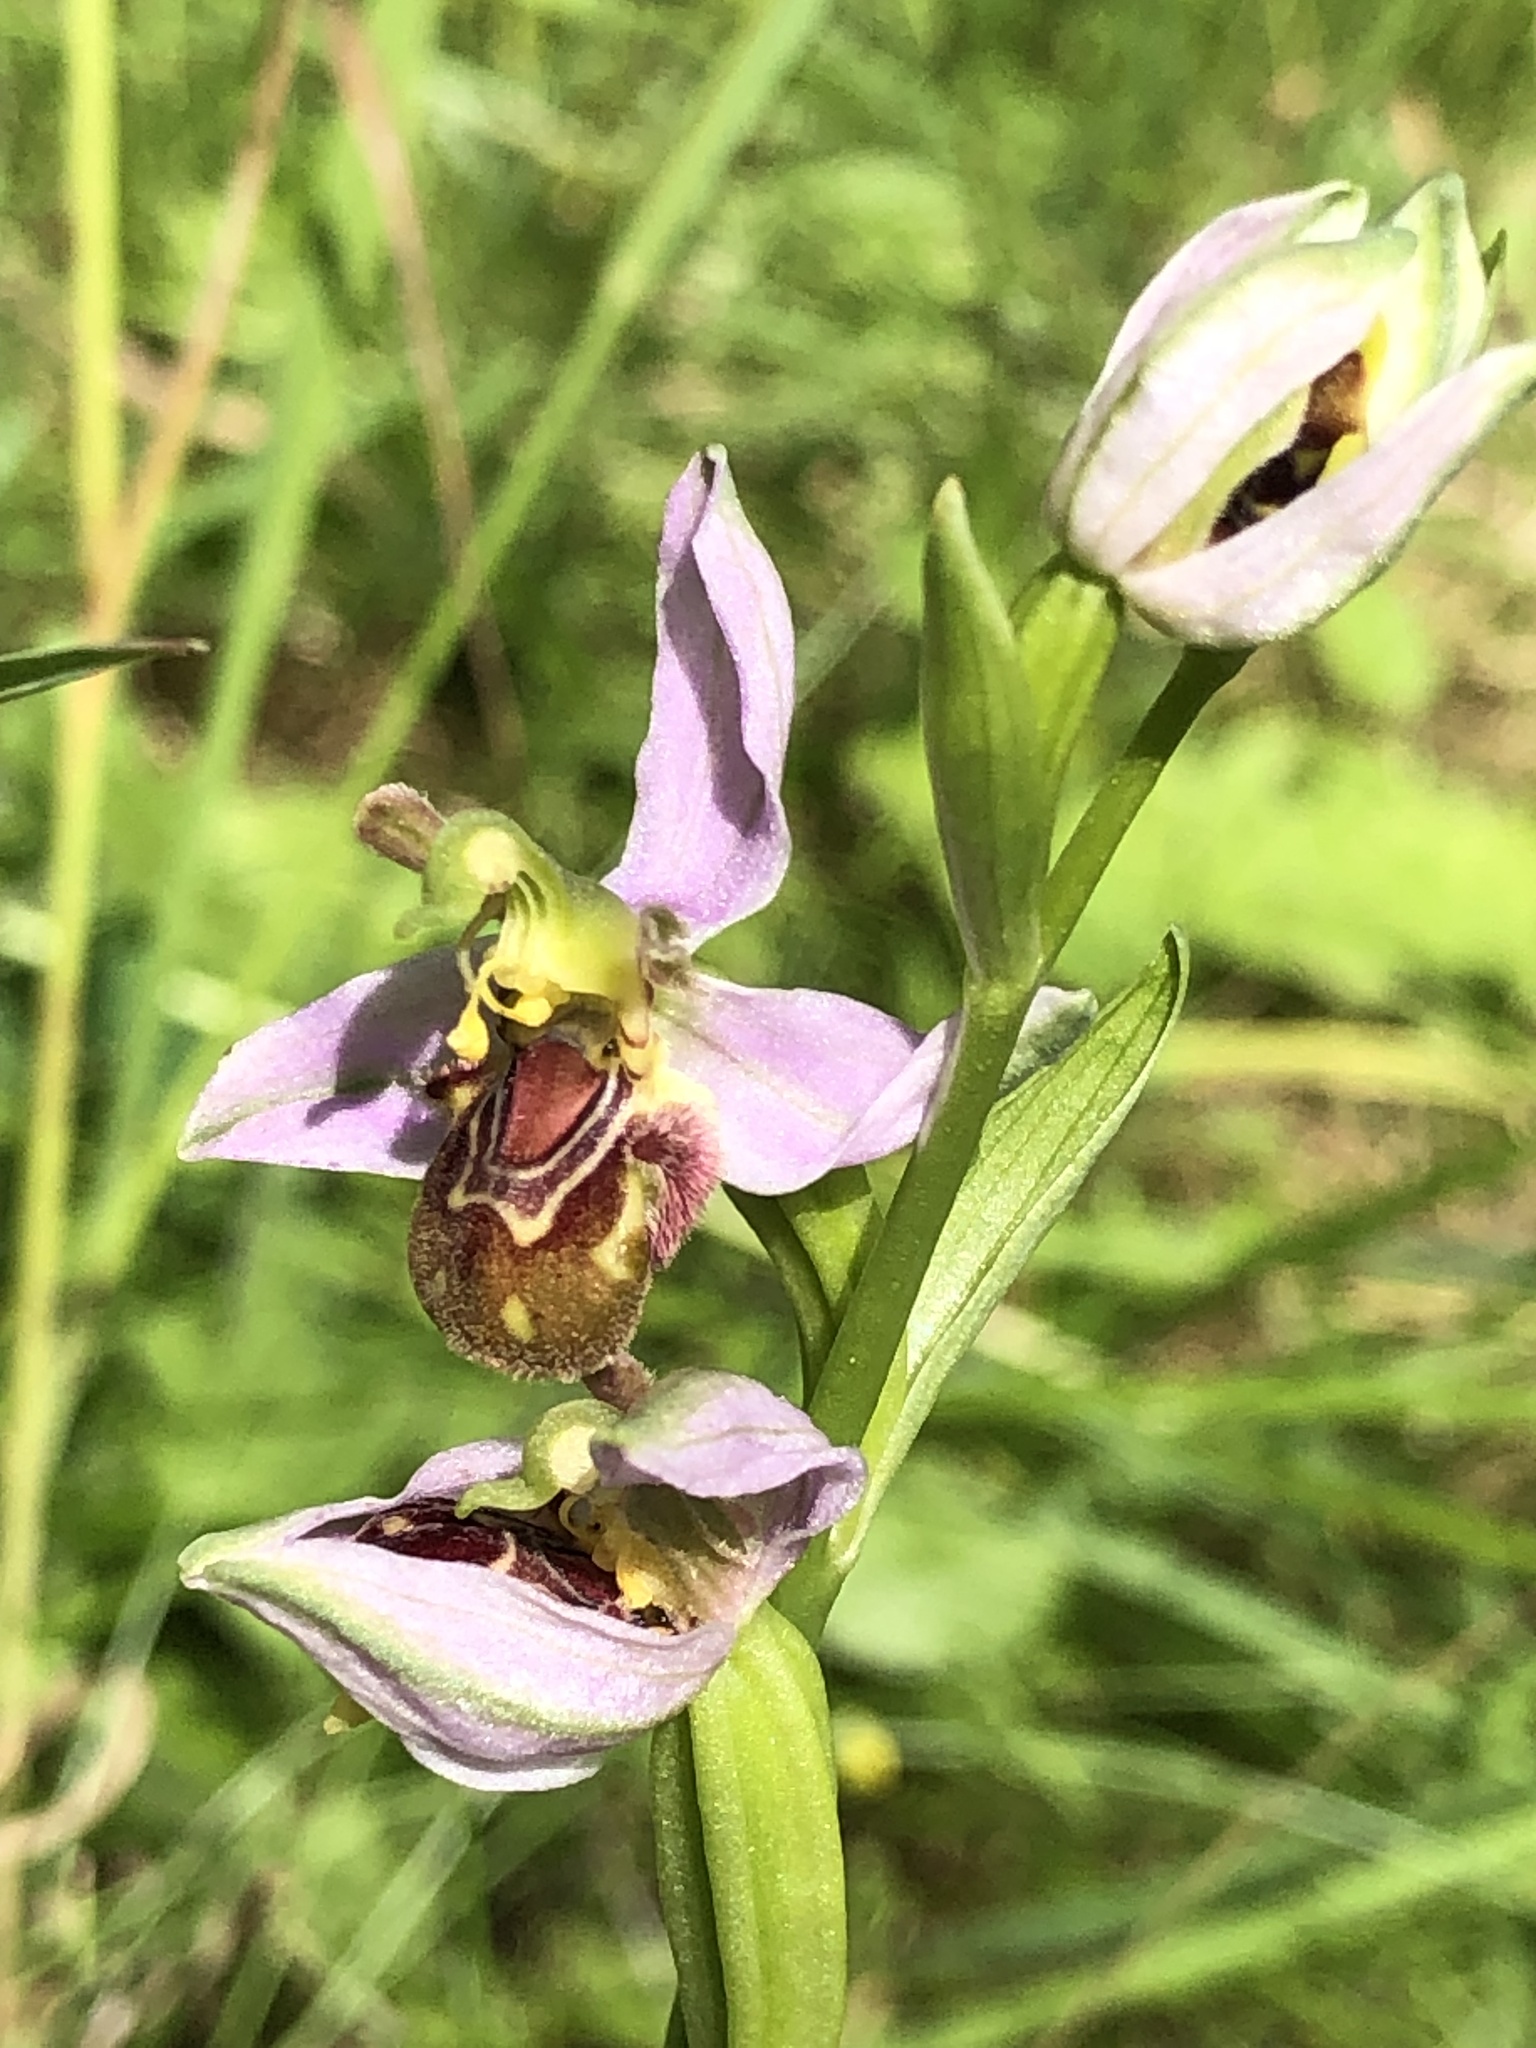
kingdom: Plantae
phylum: Tracheophyta
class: Liliopsida
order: Asparagales
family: Orchidaceae
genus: Ophrys
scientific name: Ophrys apifera
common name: Bee orchid
